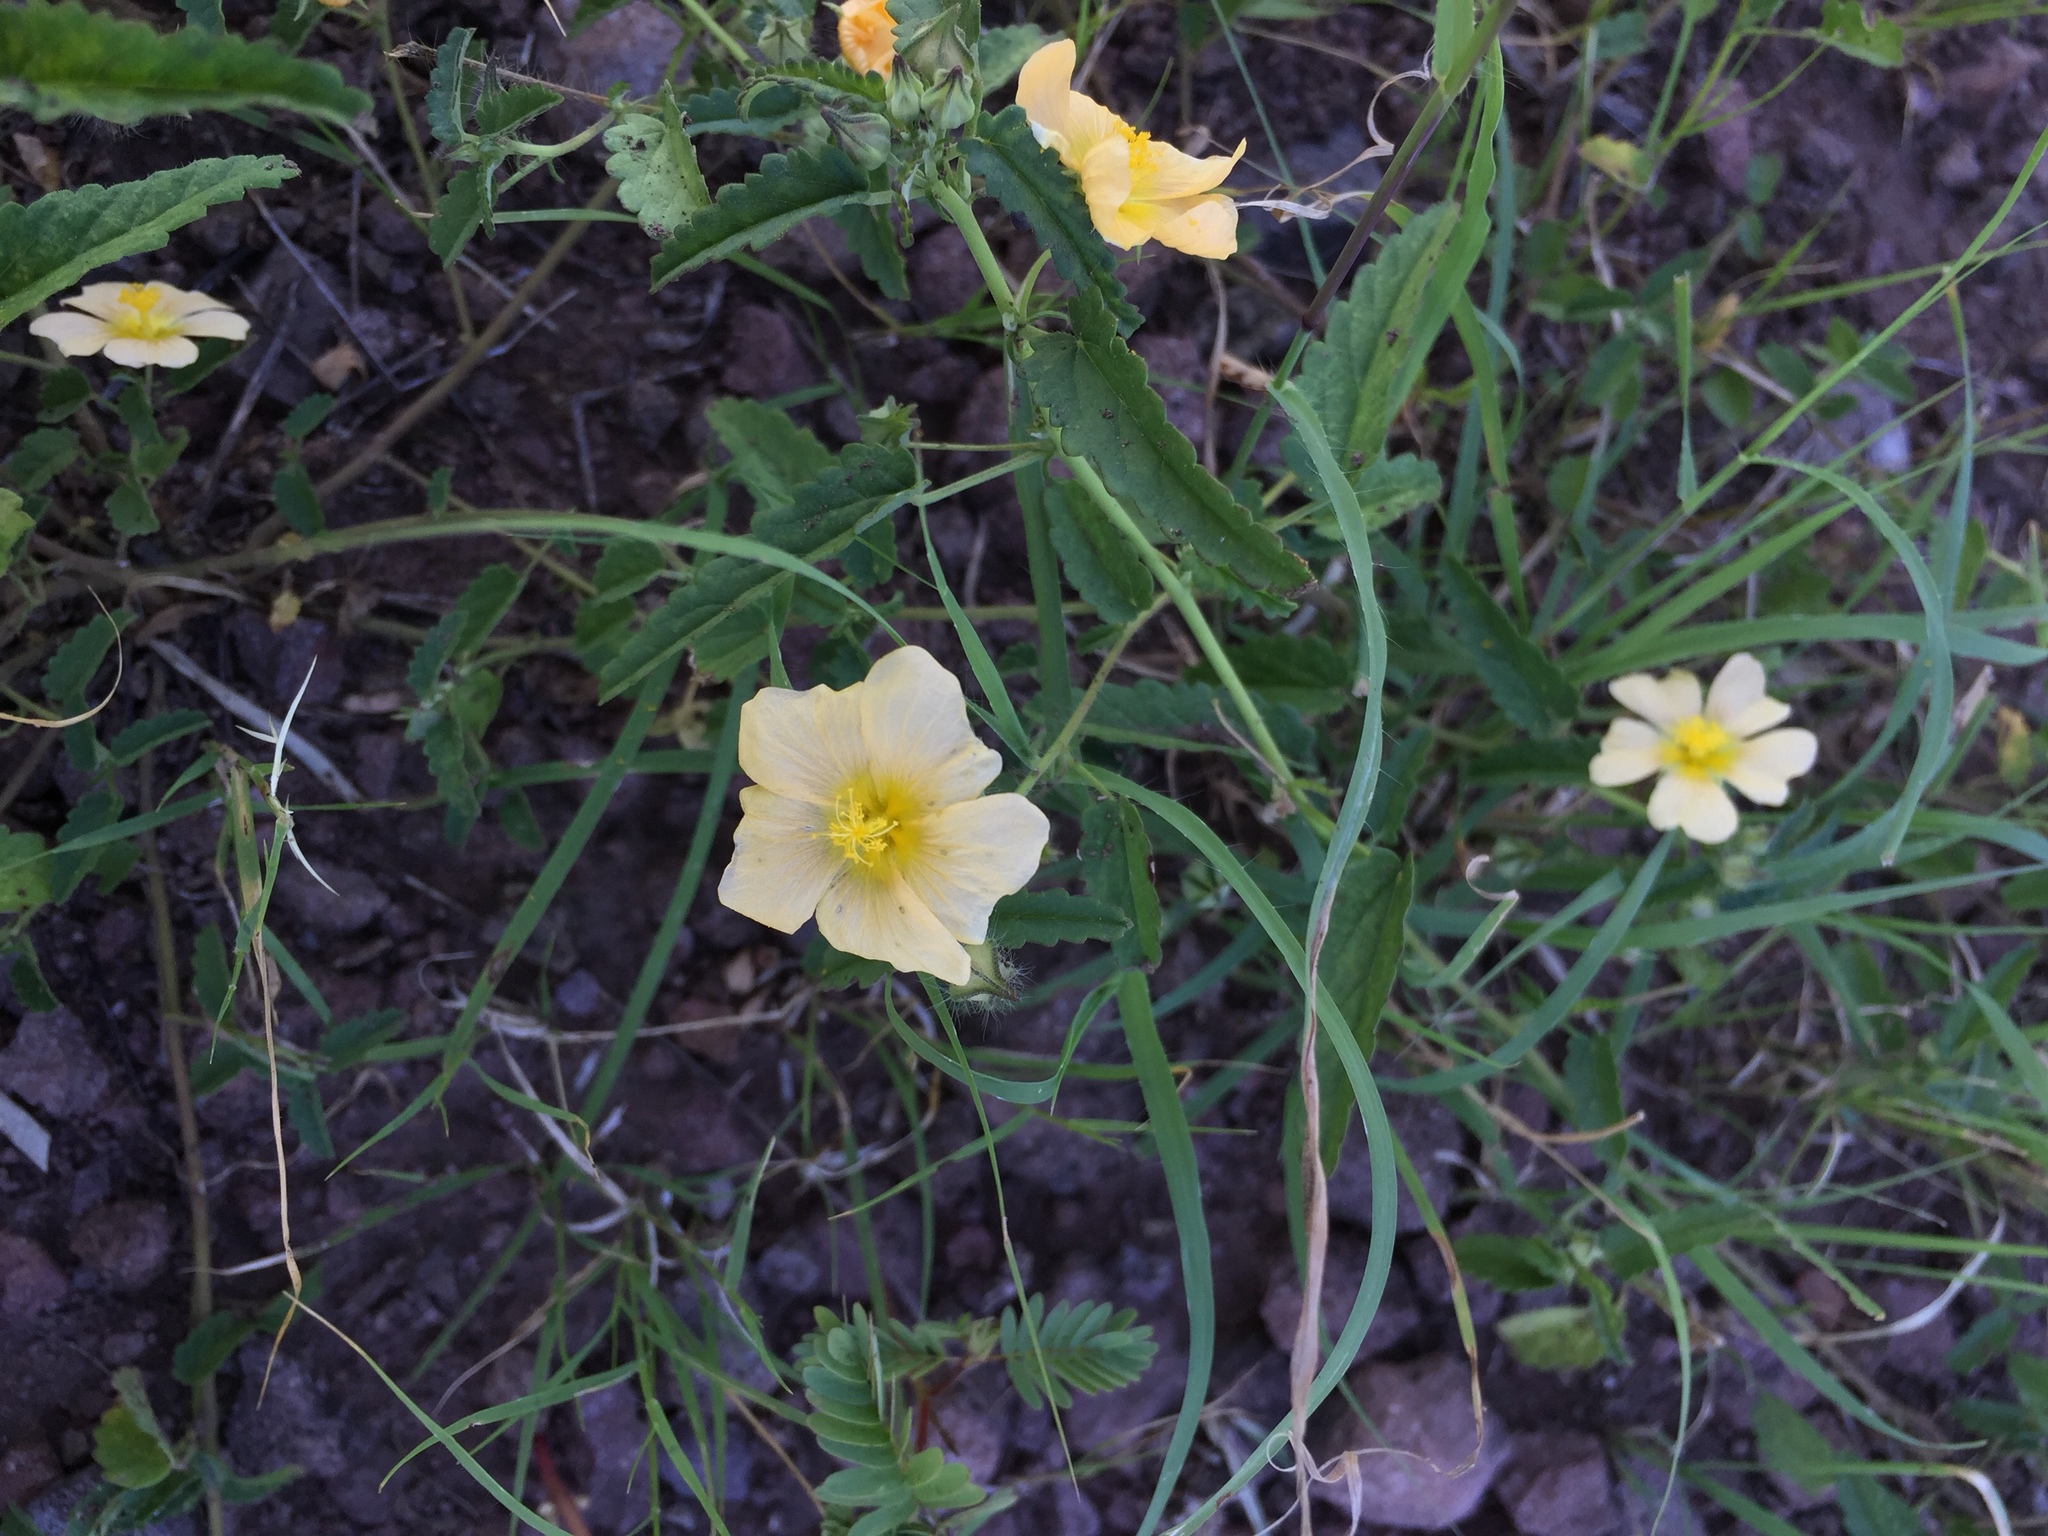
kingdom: Plantae
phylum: Tracheophyta
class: Magnoliopsida
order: Malvales
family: Malvaceae
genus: Sida
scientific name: Sida rhombifolia
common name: Queensland-hemp
